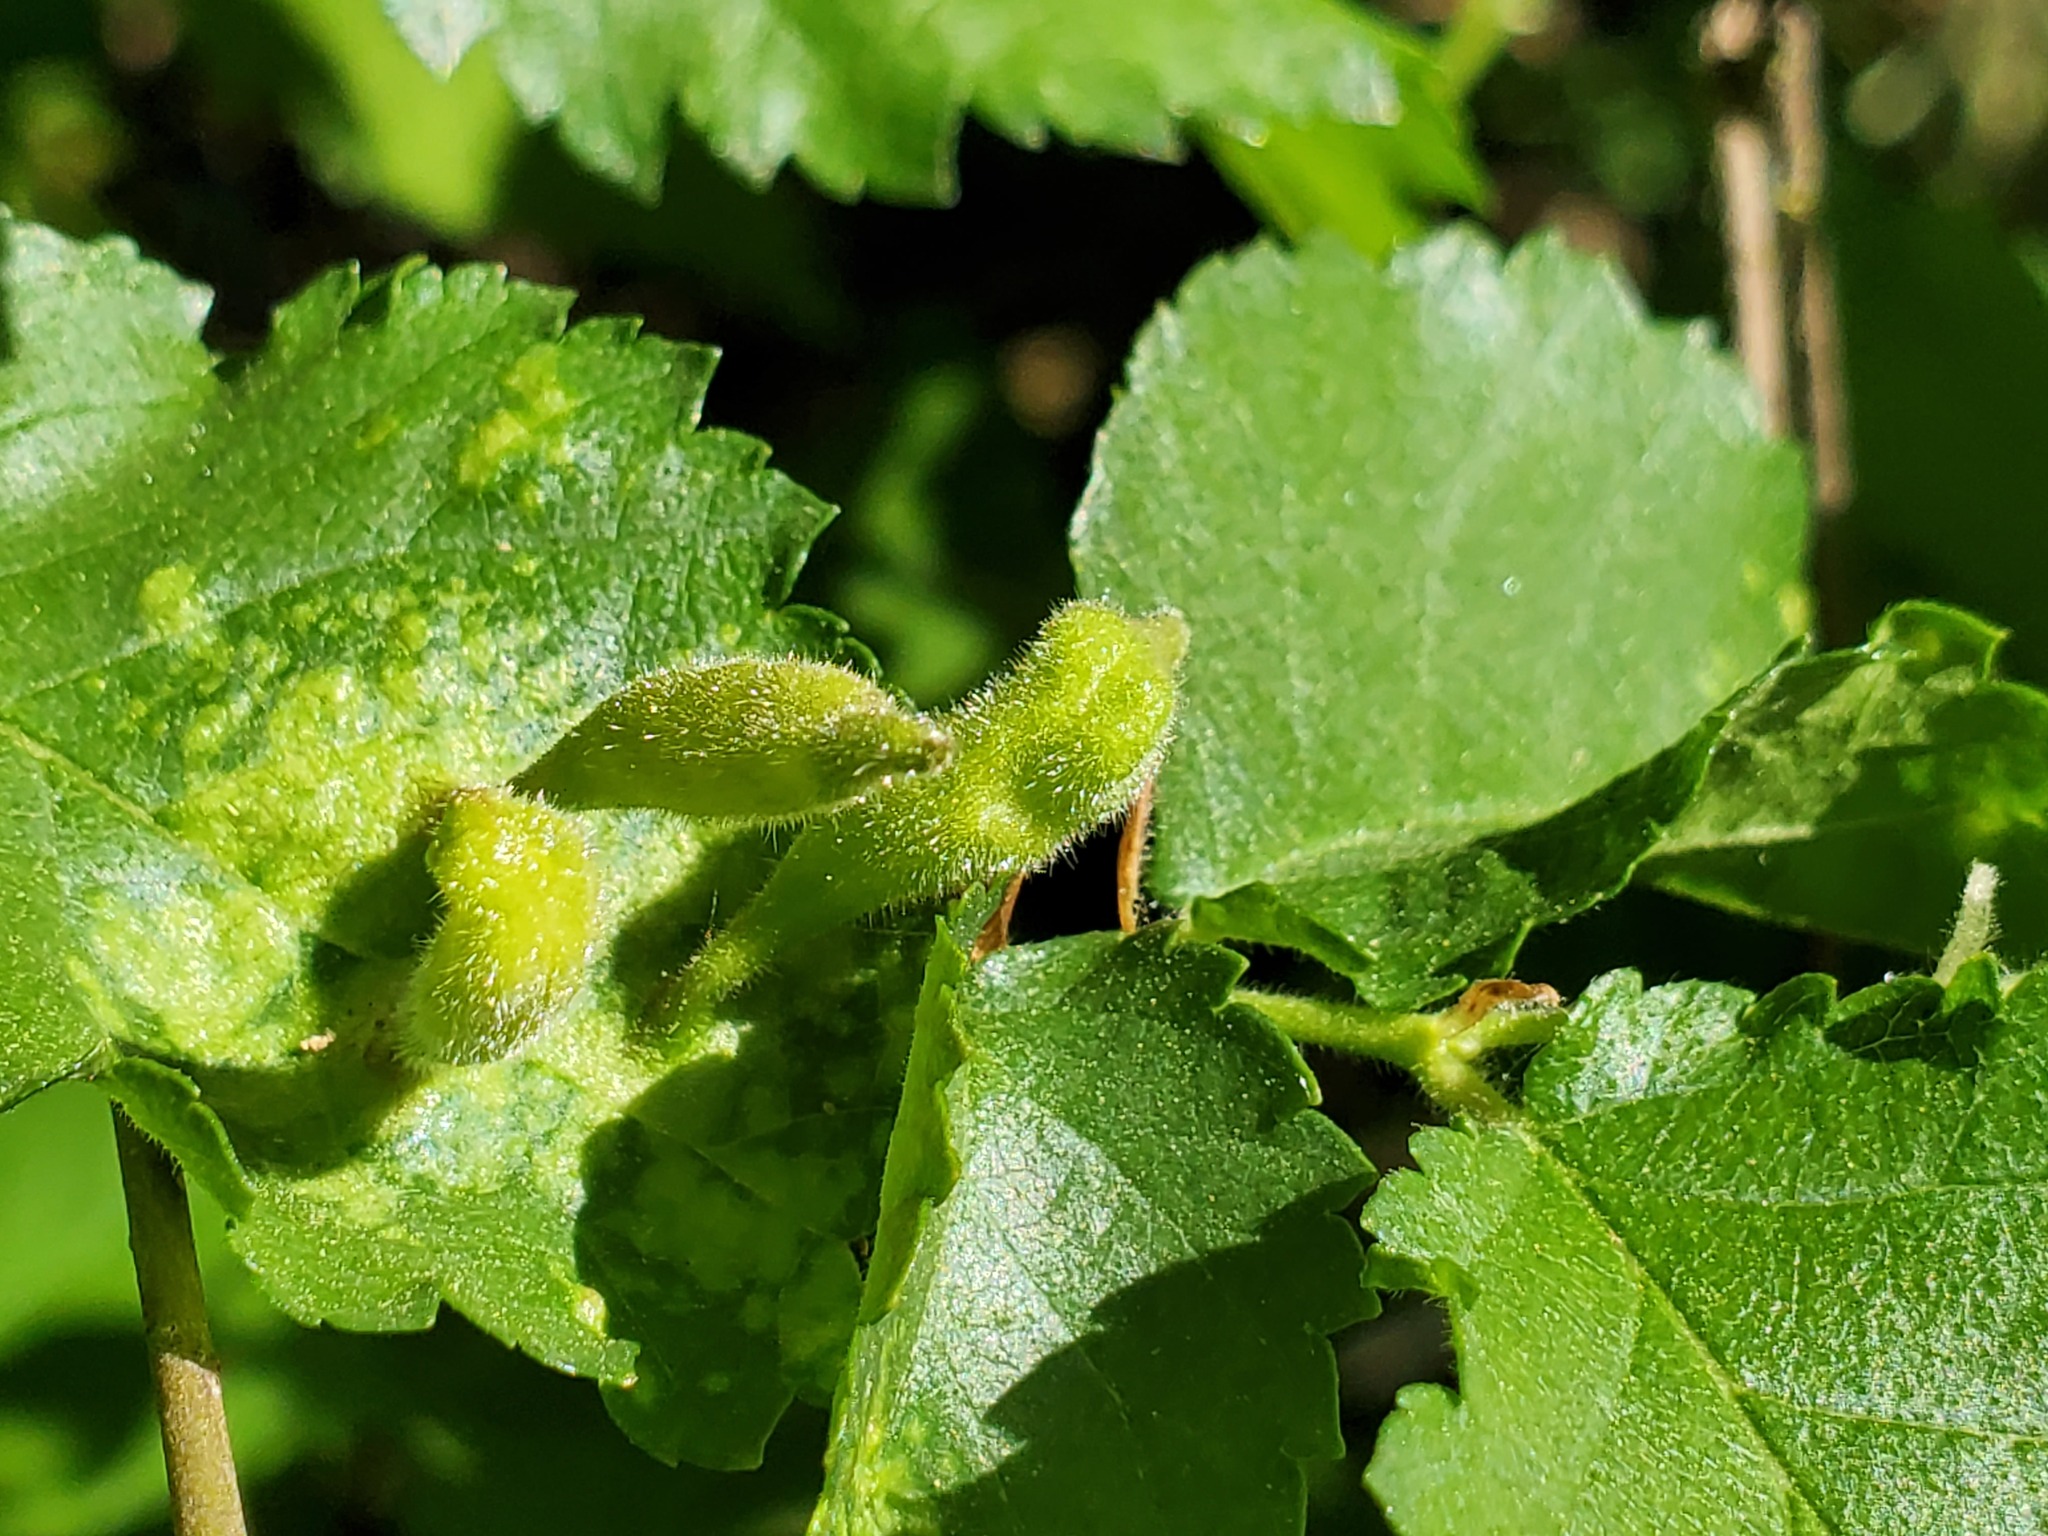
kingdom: Animalia
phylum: Arthropoda
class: Insecta
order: Hemiptera
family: Aphididae
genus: Tetraneura
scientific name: Tetraneura nigriabdominalis
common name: Aphid
